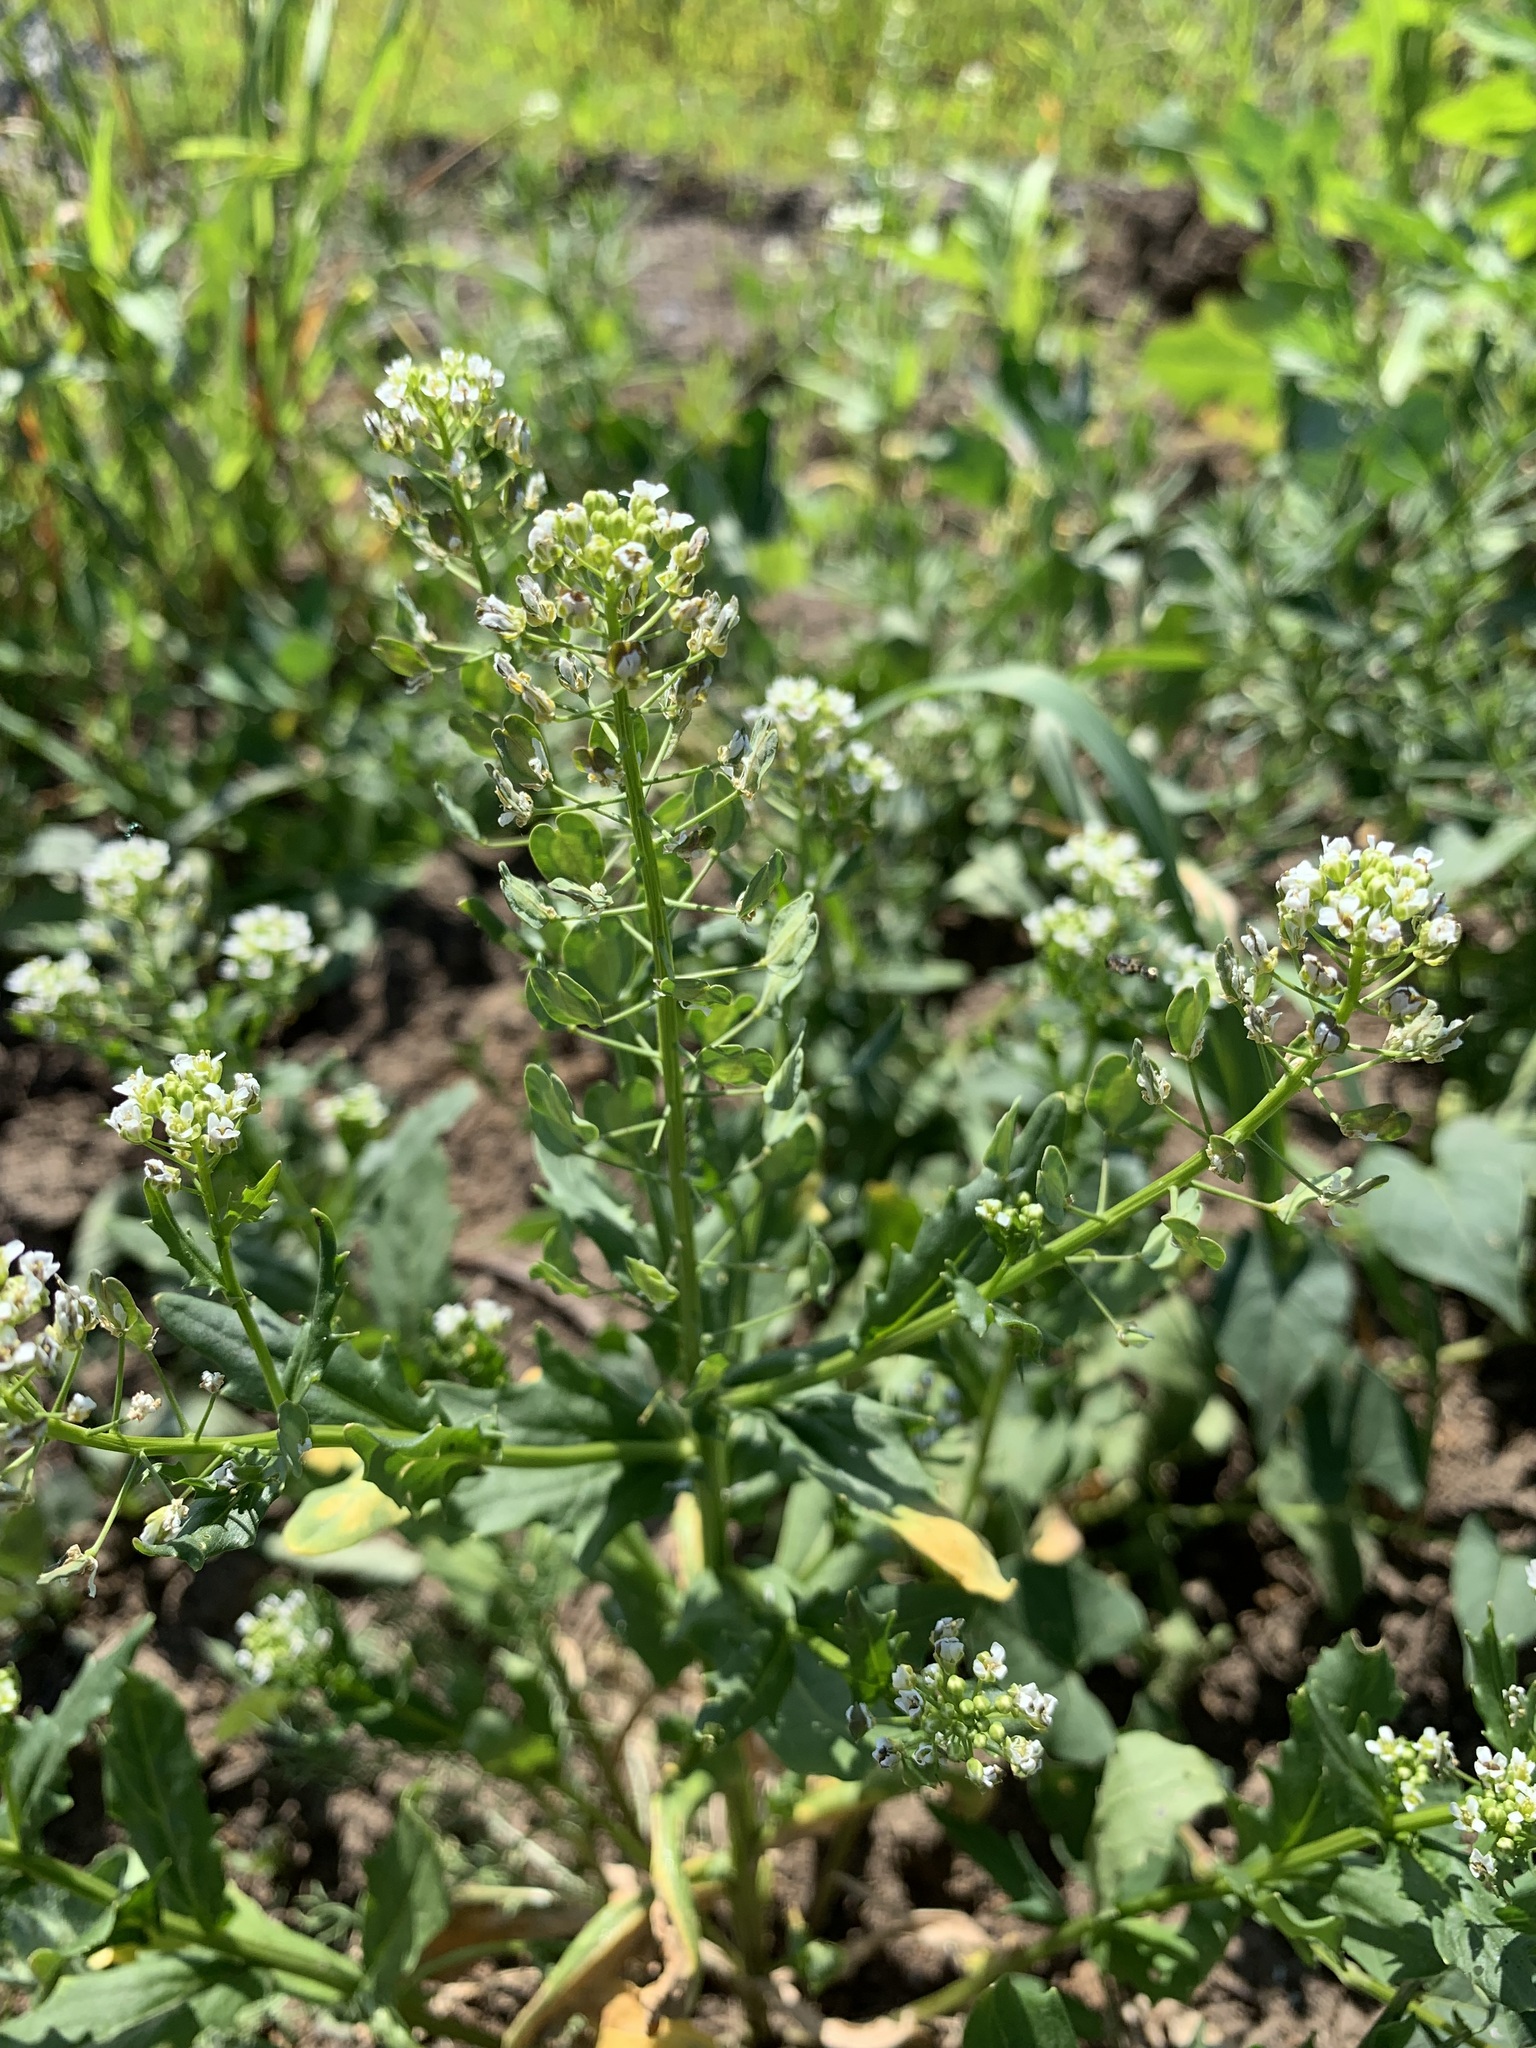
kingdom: Plantae
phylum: Tracheophyta
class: Magnoliopsida
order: Brassicales
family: Brassicaceae
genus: Thlaspi
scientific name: Thlaspi arvense
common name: Field pennycress
